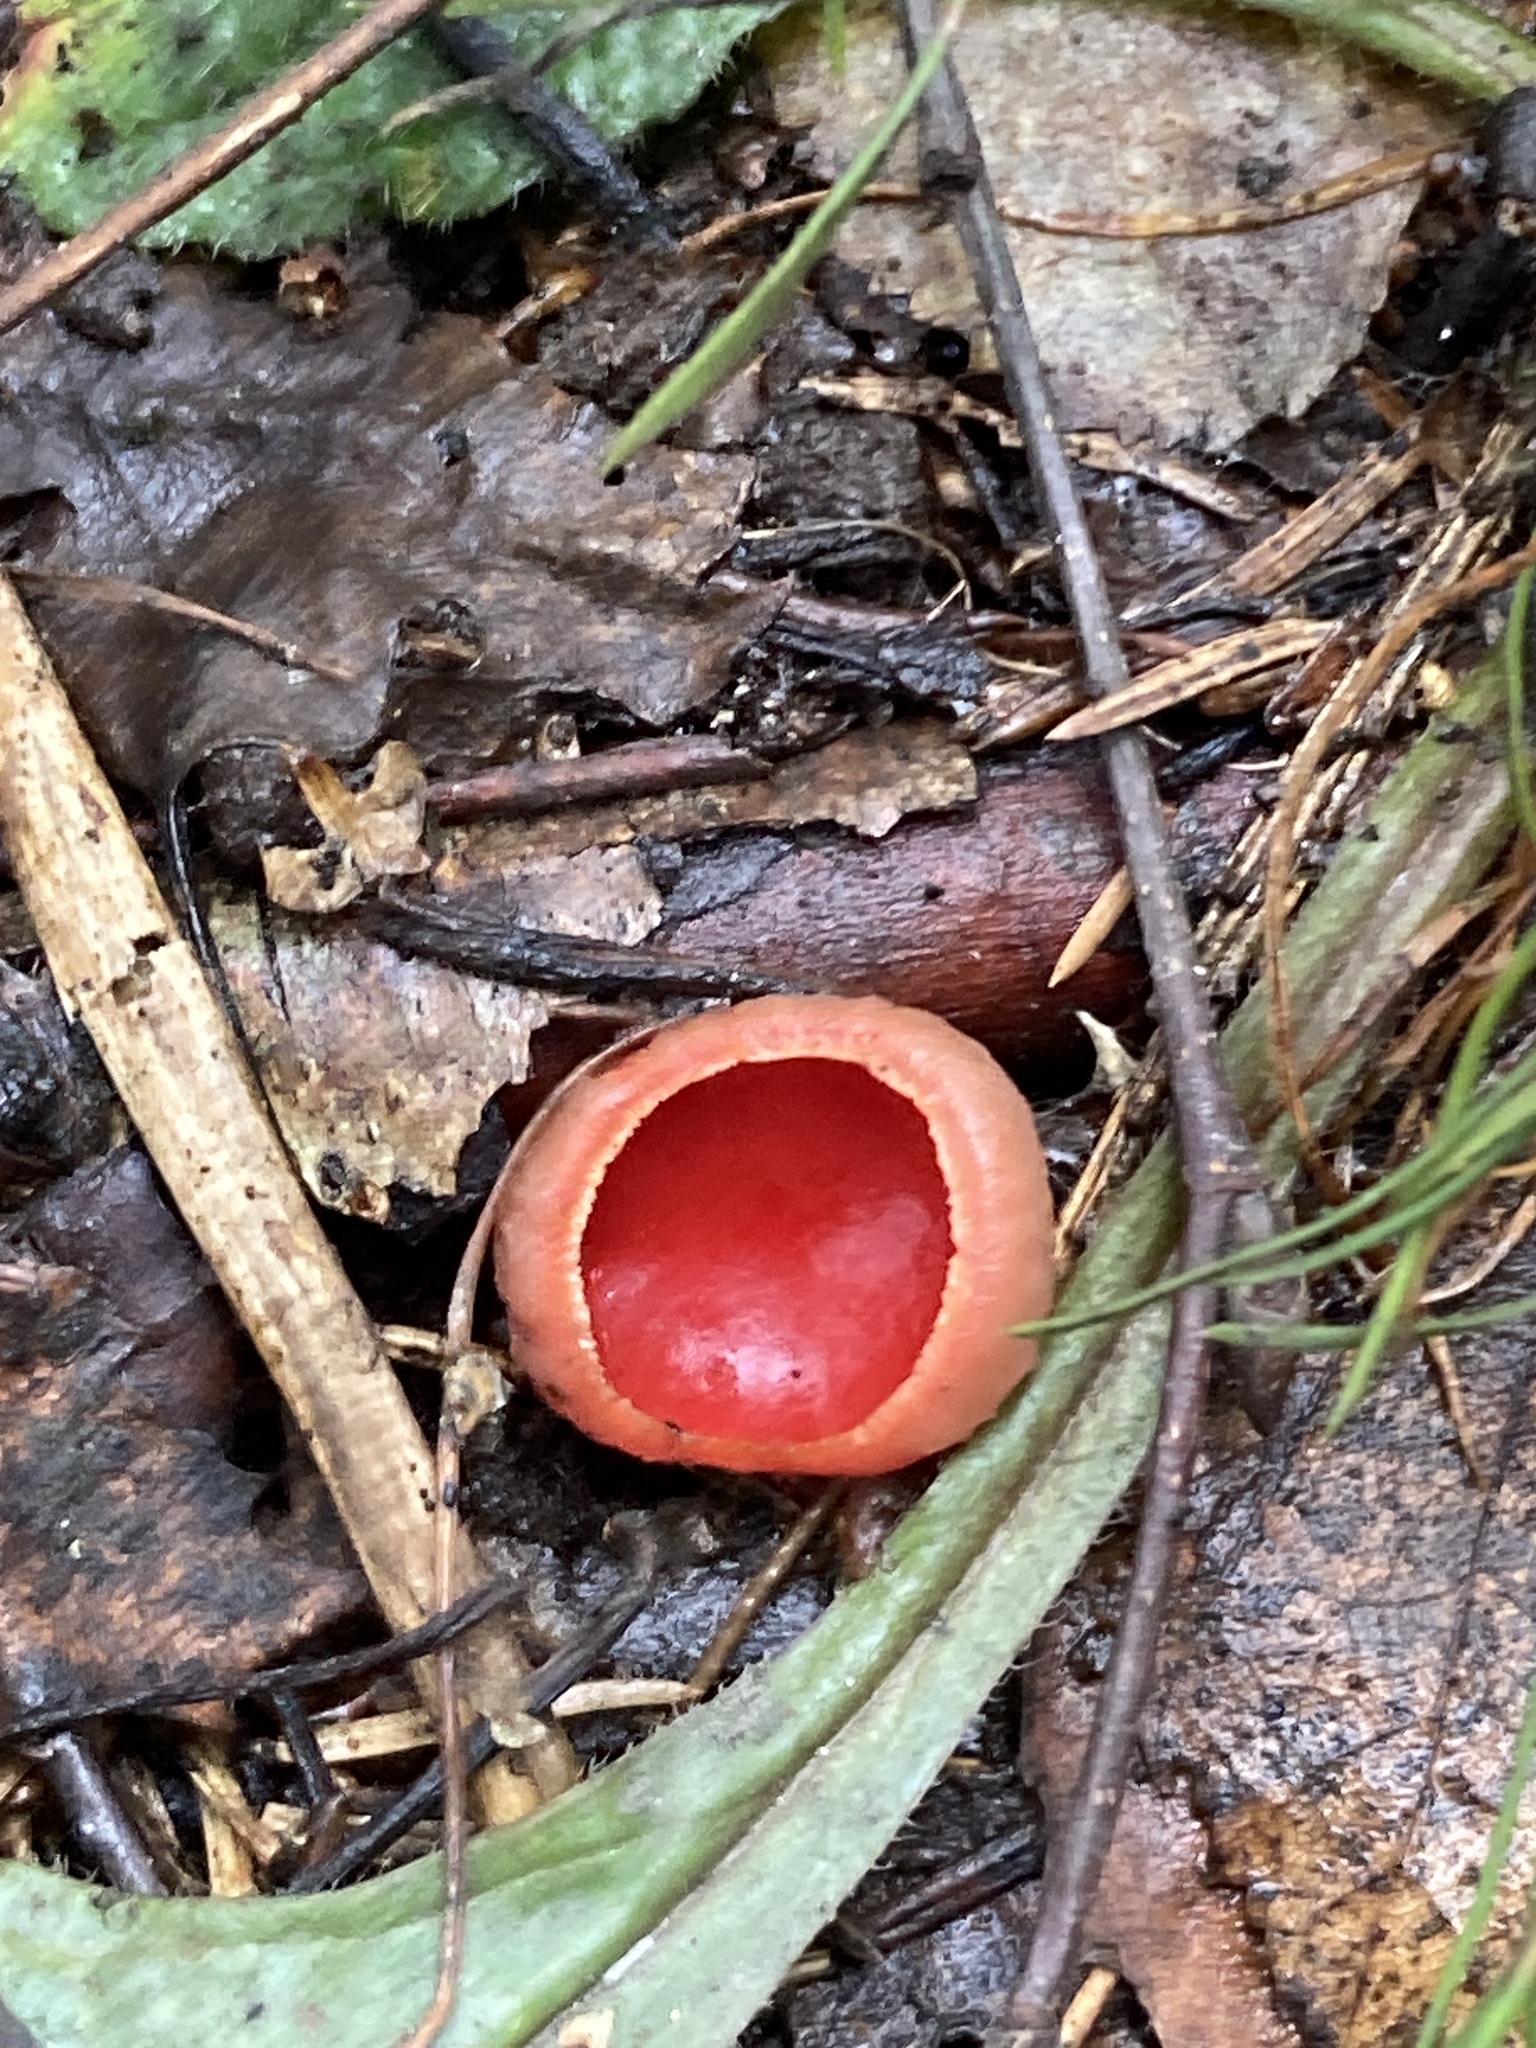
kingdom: Fungi
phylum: Ascomycota
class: Pezizomycetes
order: Pezizales
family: Sarcoscyphaceae
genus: Sarcoscypha
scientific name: Sarcoscypha austriaca
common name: Scarlet elfcup
